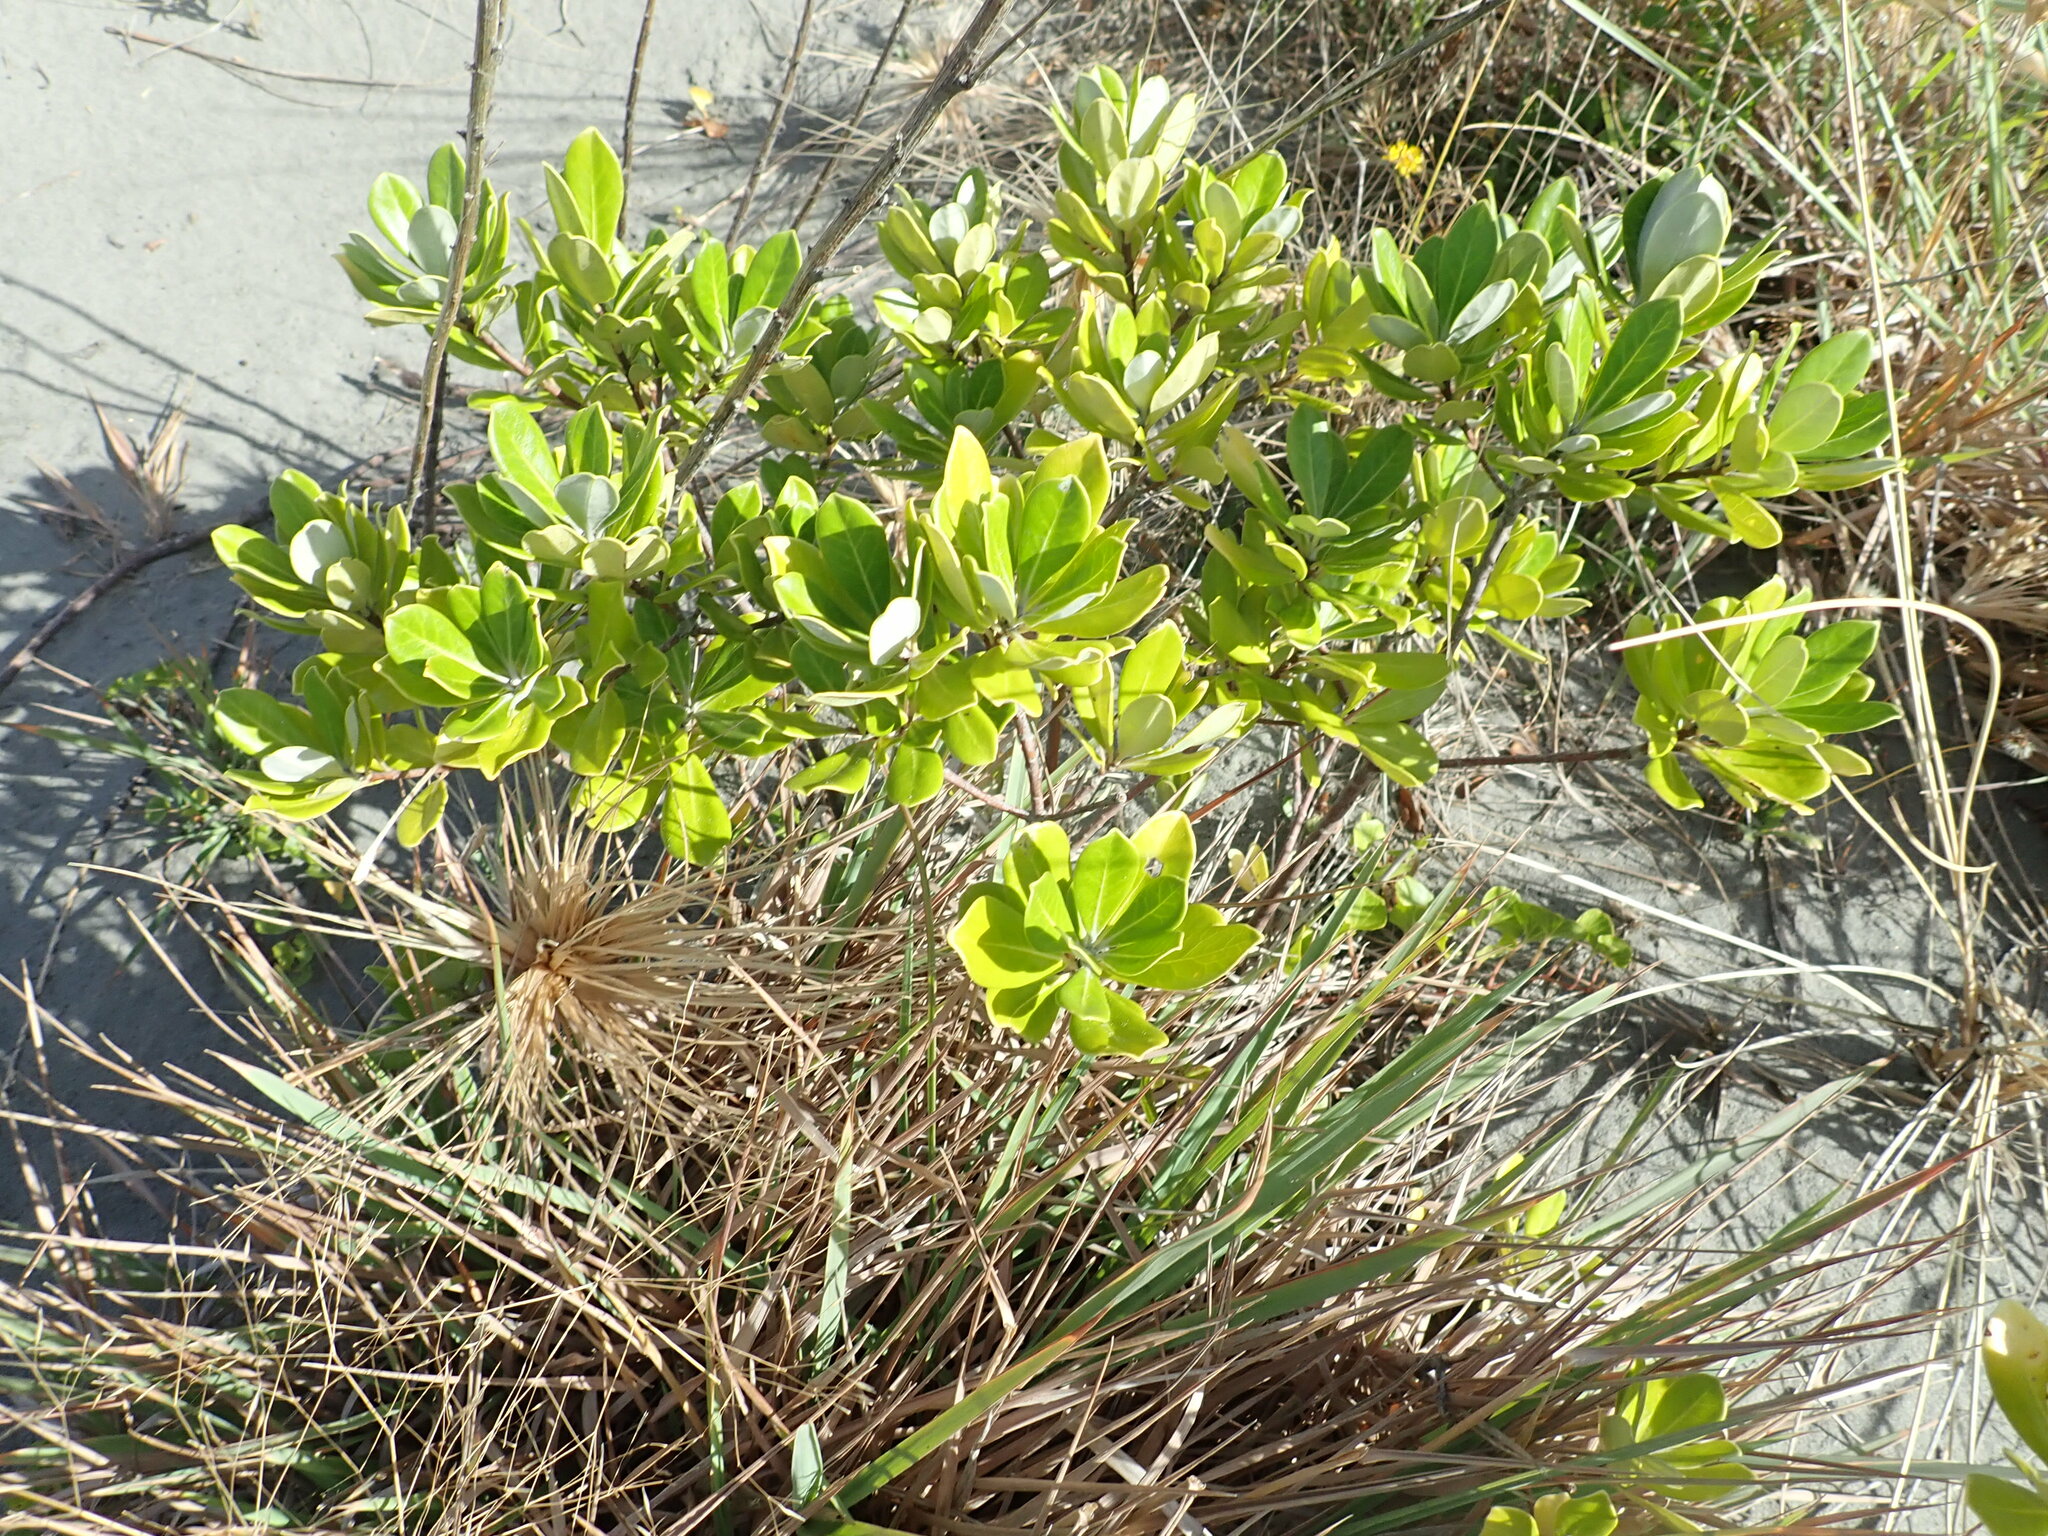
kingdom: Plantae
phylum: Tracheophyta
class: Magnoliopsida
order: Apiales
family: Pittosporaceae
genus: Pittosporum
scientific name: Pittosporum crassifolium
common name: Karo
